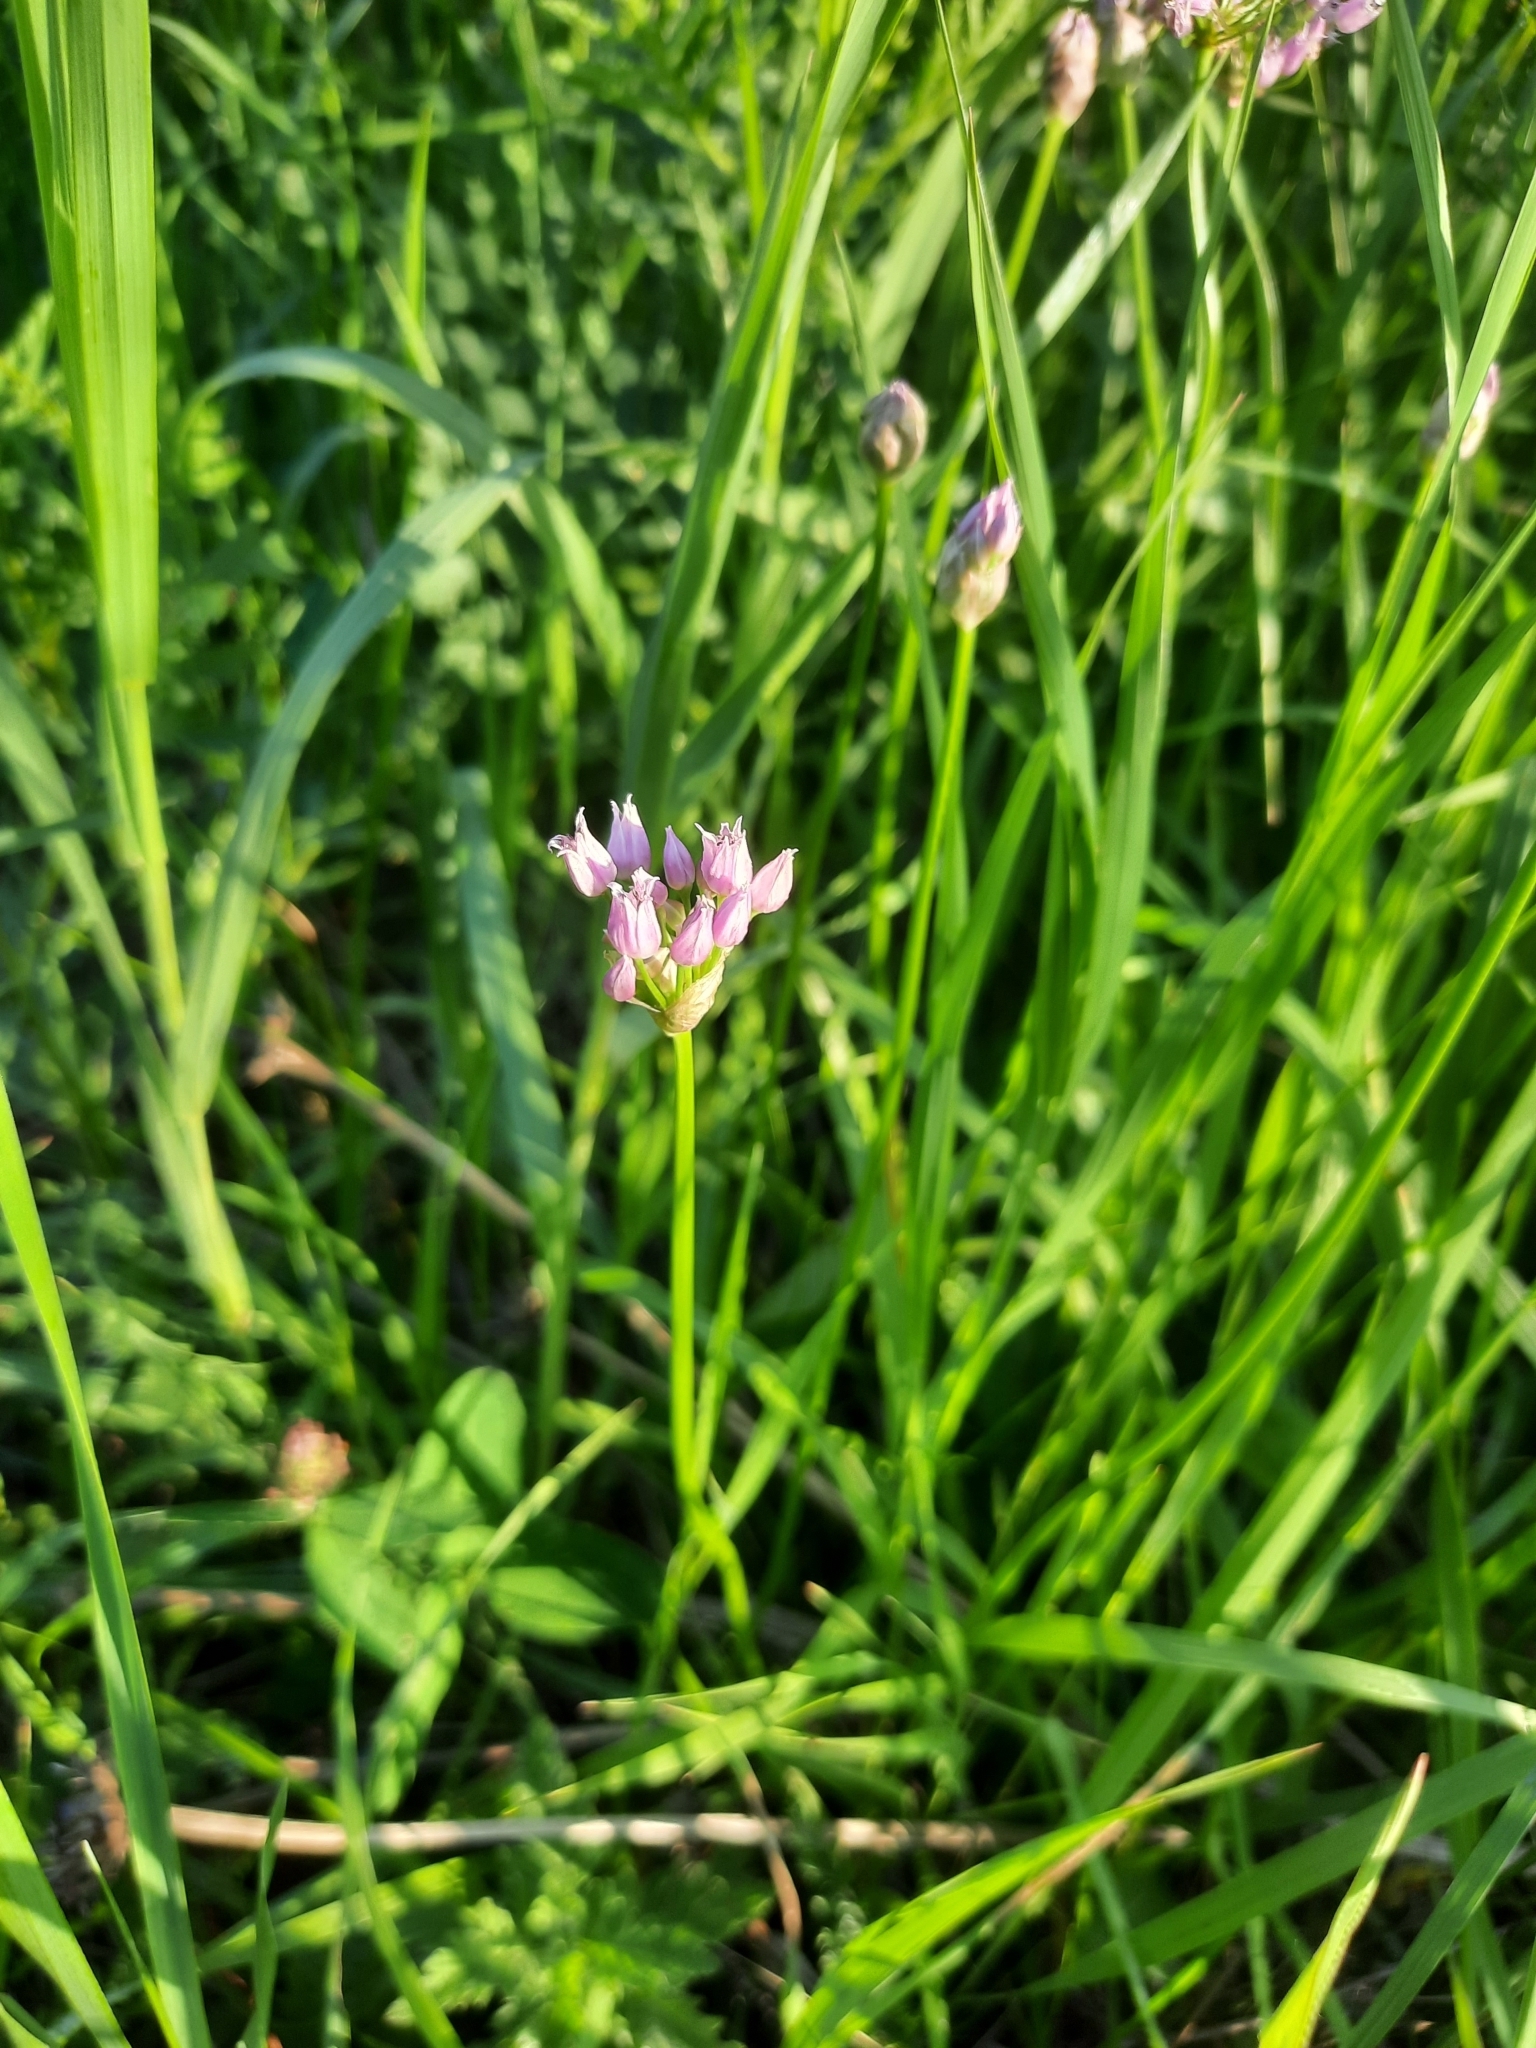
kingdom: Plantae
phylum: Tracheophyta
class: Liliopsida
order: Asparagales
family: Amaryllidaceae
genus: Allium
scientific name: Allium angulosum
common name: Mouse garlic
